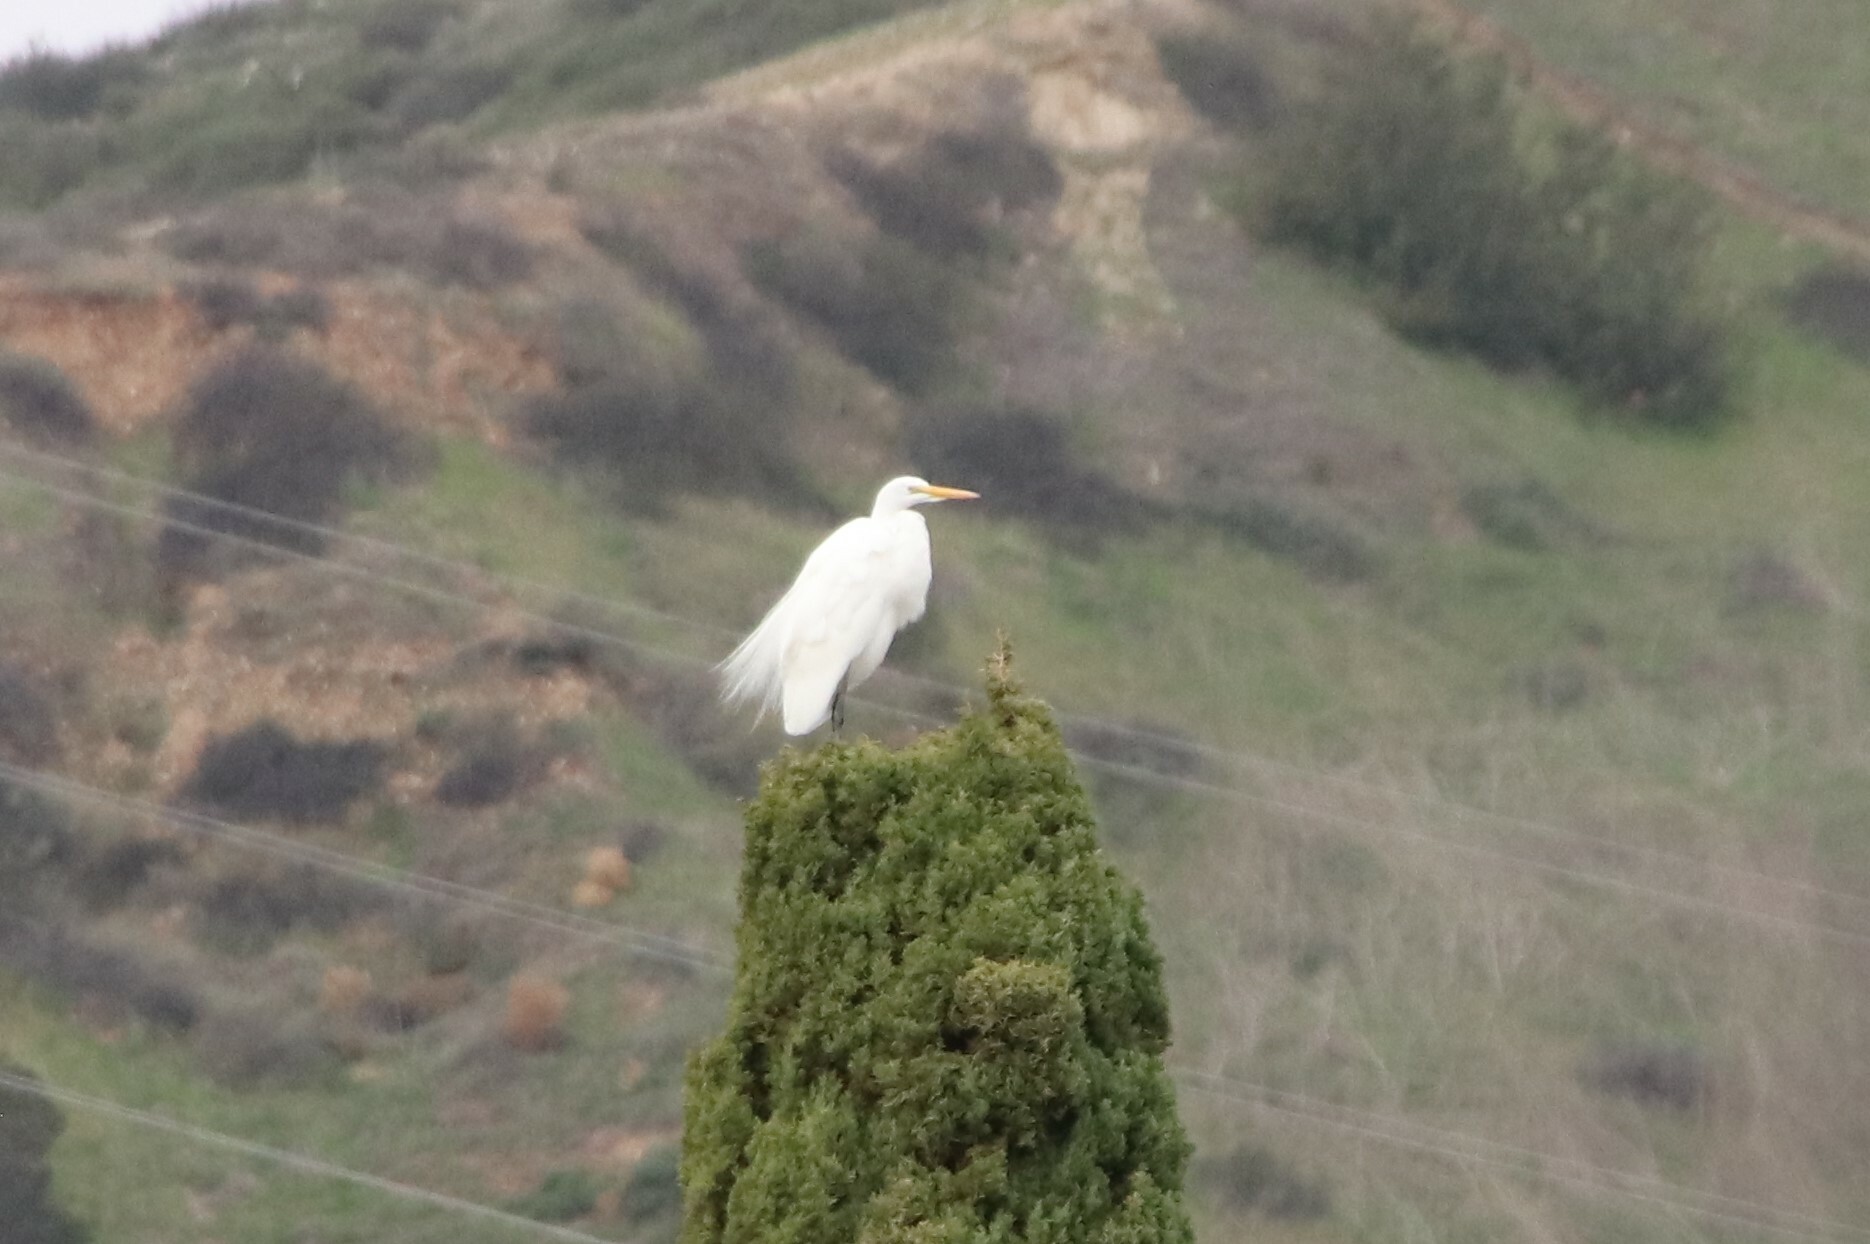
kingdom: Animalia
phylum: Chordata
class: Aves
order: Pelecaniformes
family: Ardeidae
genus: Ardea
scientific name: Ardea alba
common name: Great egret
